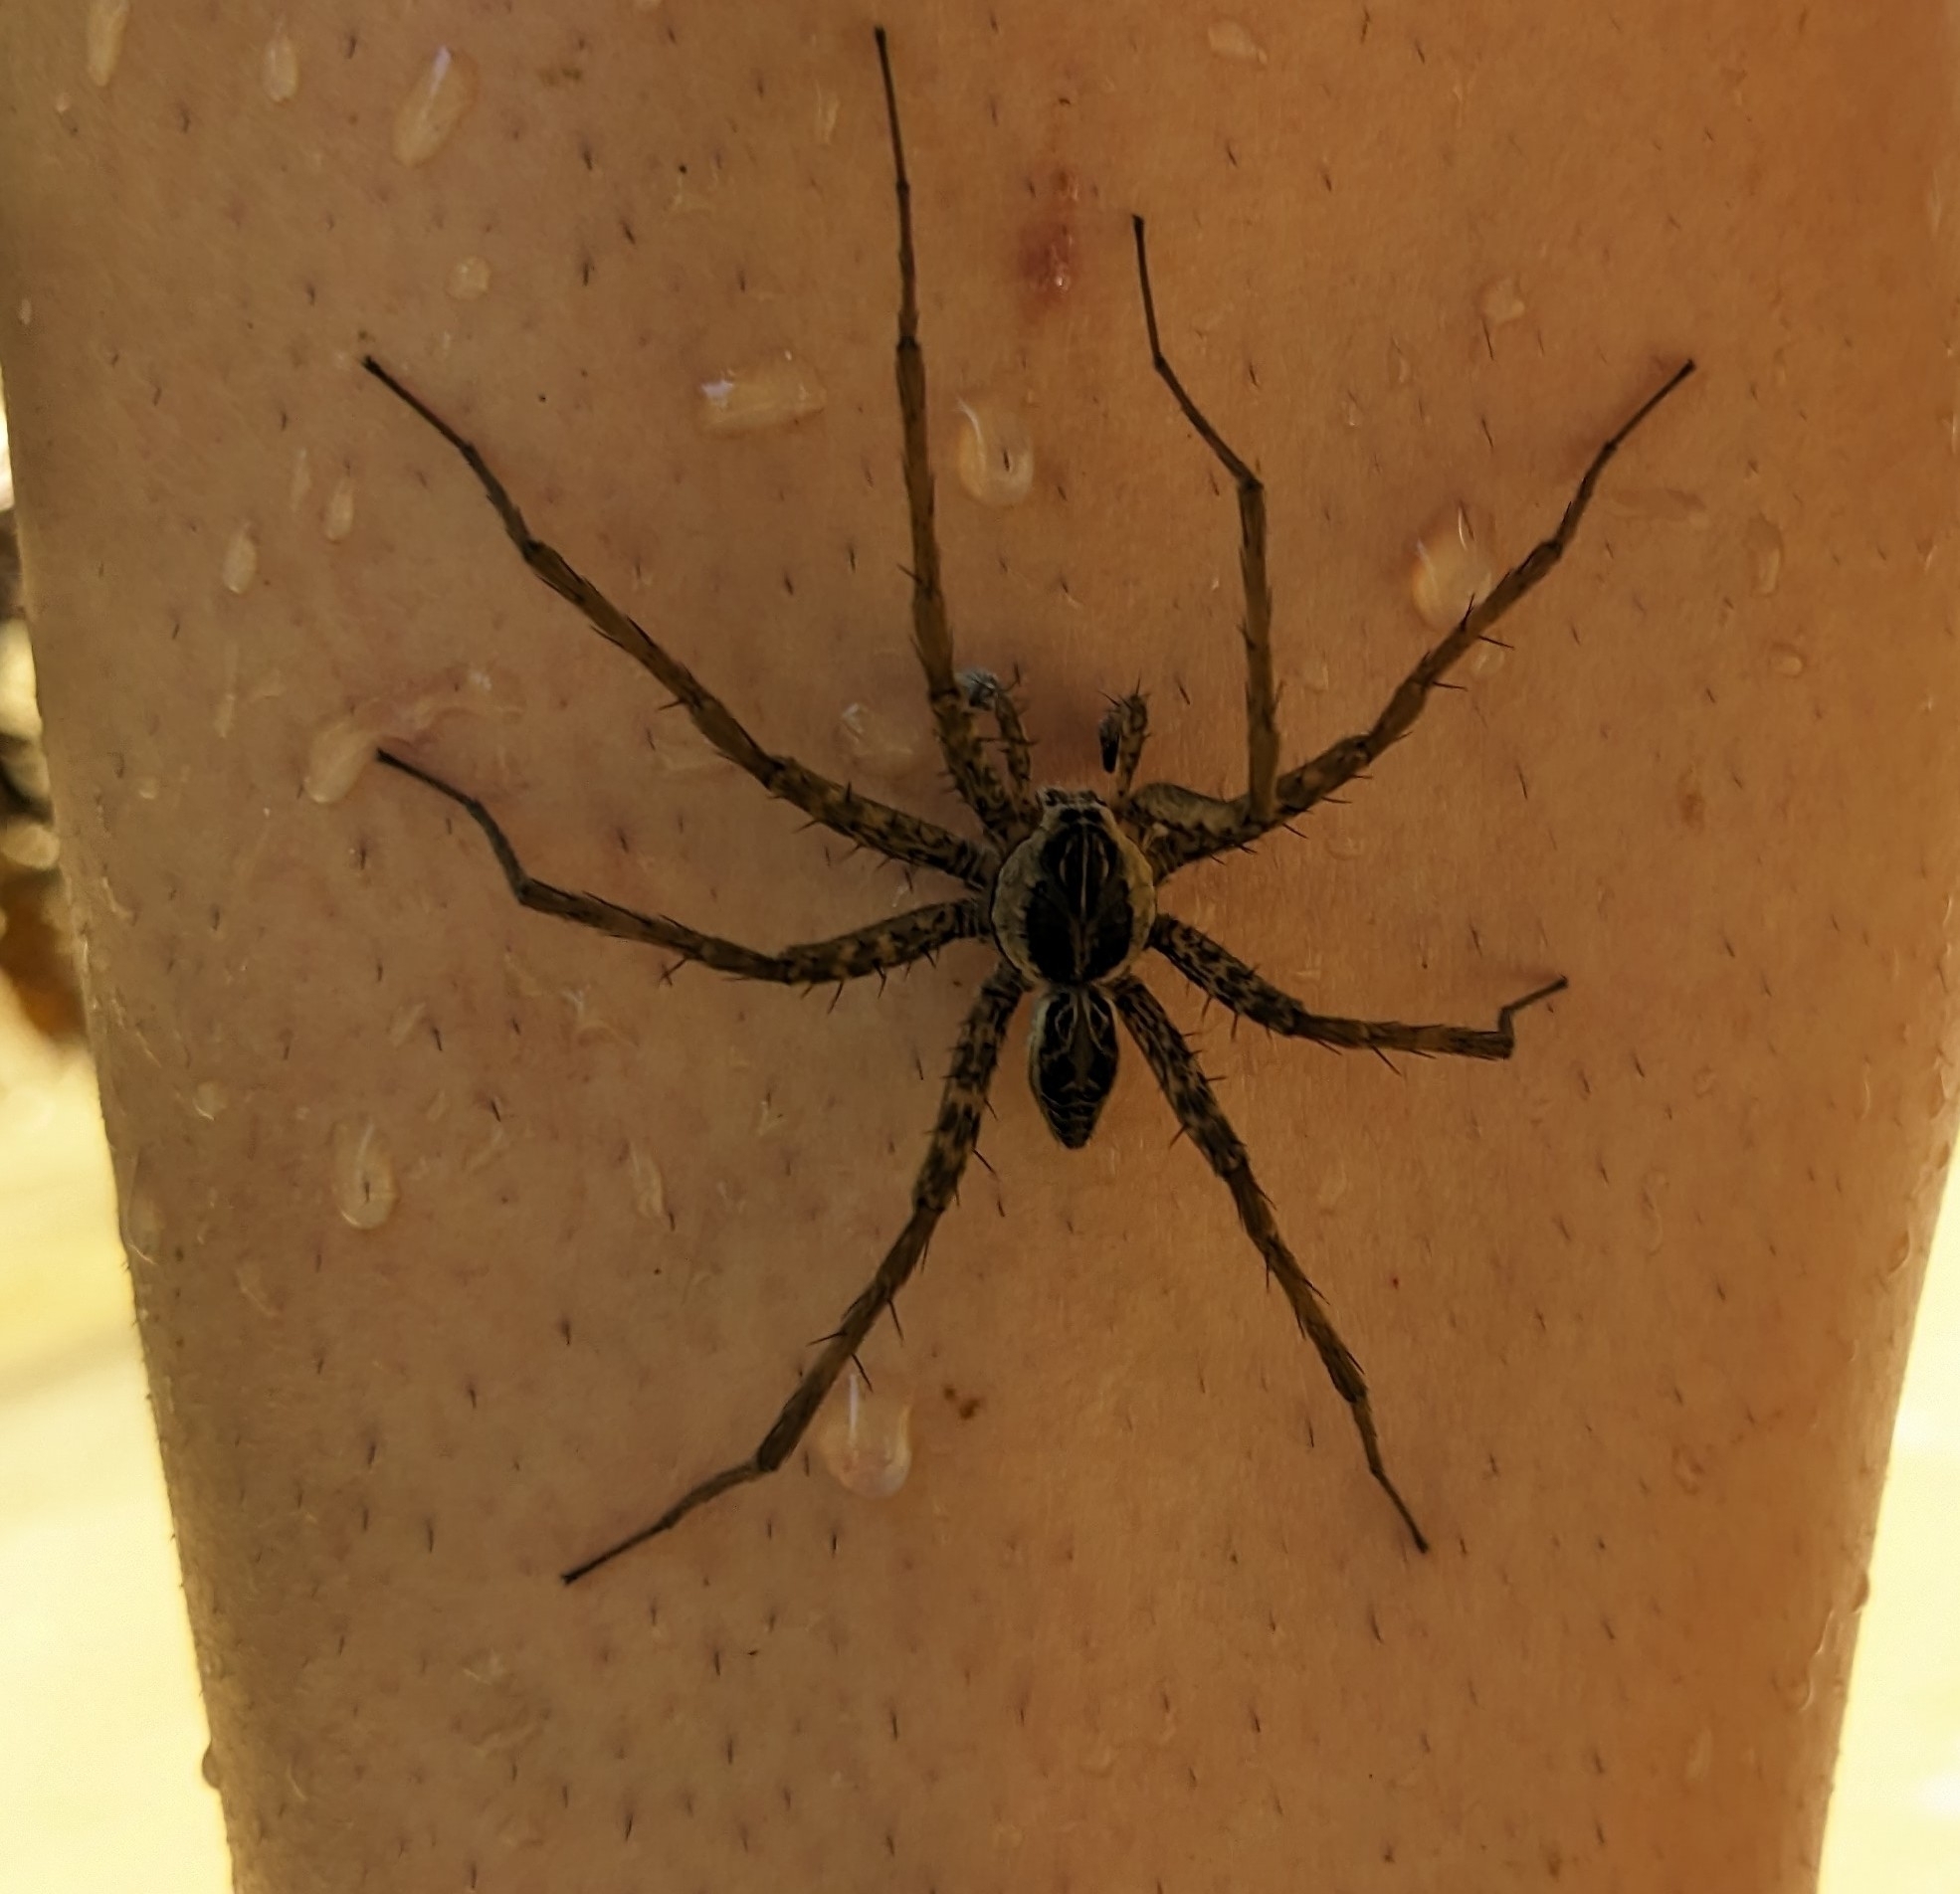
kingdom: Animalia
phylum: Arthropoda
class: Arachnida
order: Araneae
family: Pisauridae
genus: Dolomedes
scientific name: Dolomedes scriptus
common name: Striped fishing spider
